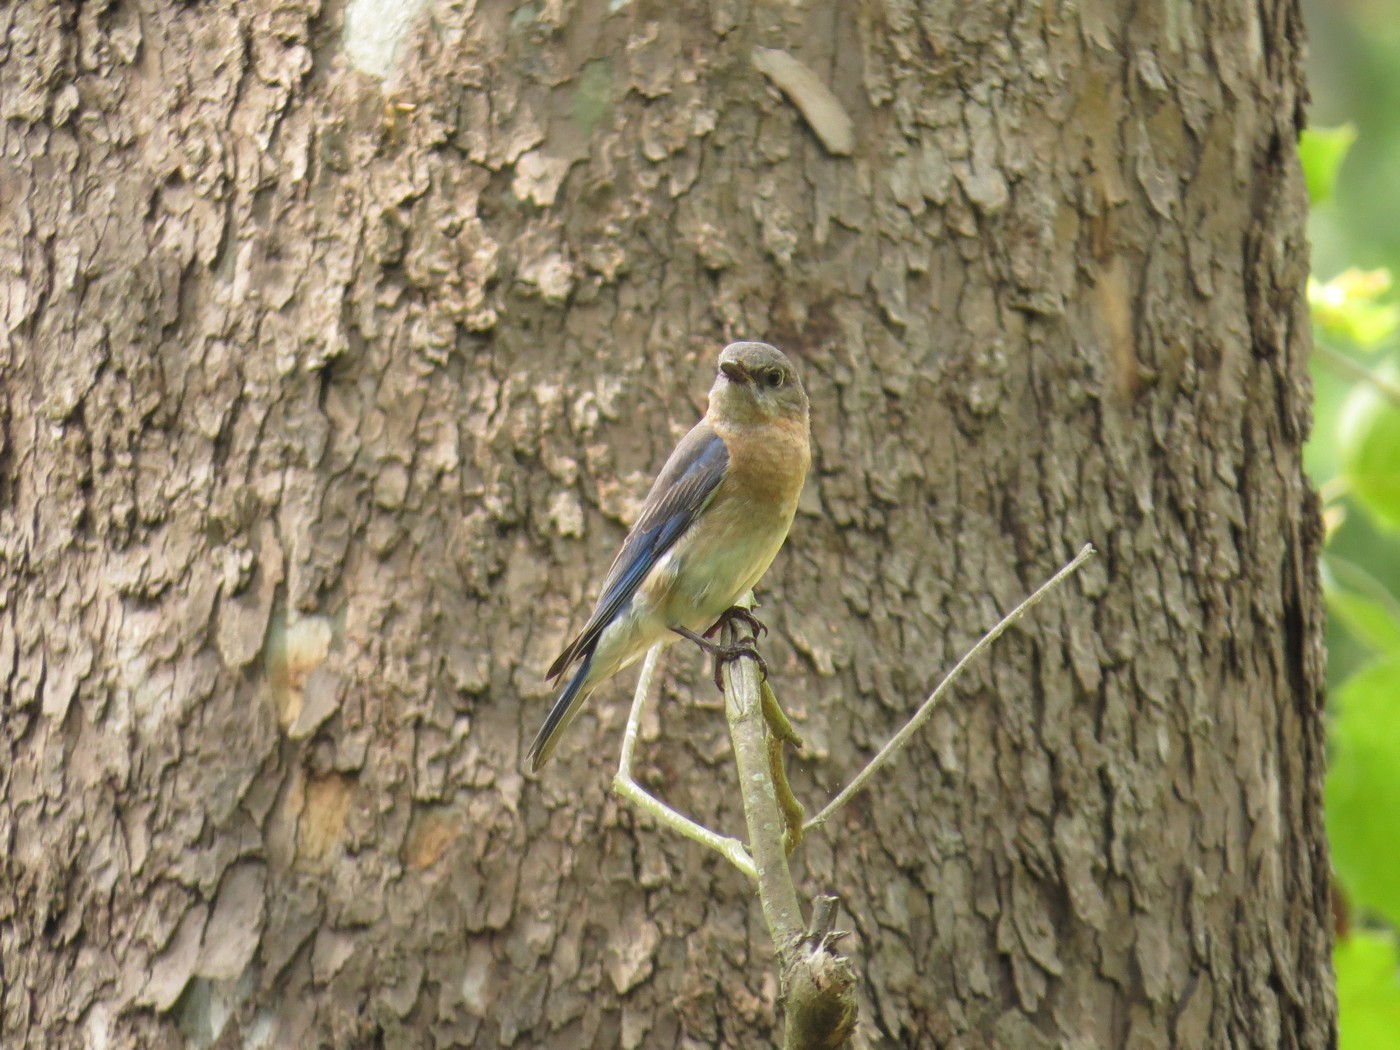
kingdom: Animalia
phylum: Chordata
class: Aves
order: Passeriformes
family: Turdidae
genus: Sialia
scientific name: Sialia sialis
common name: Eastern bluebird
